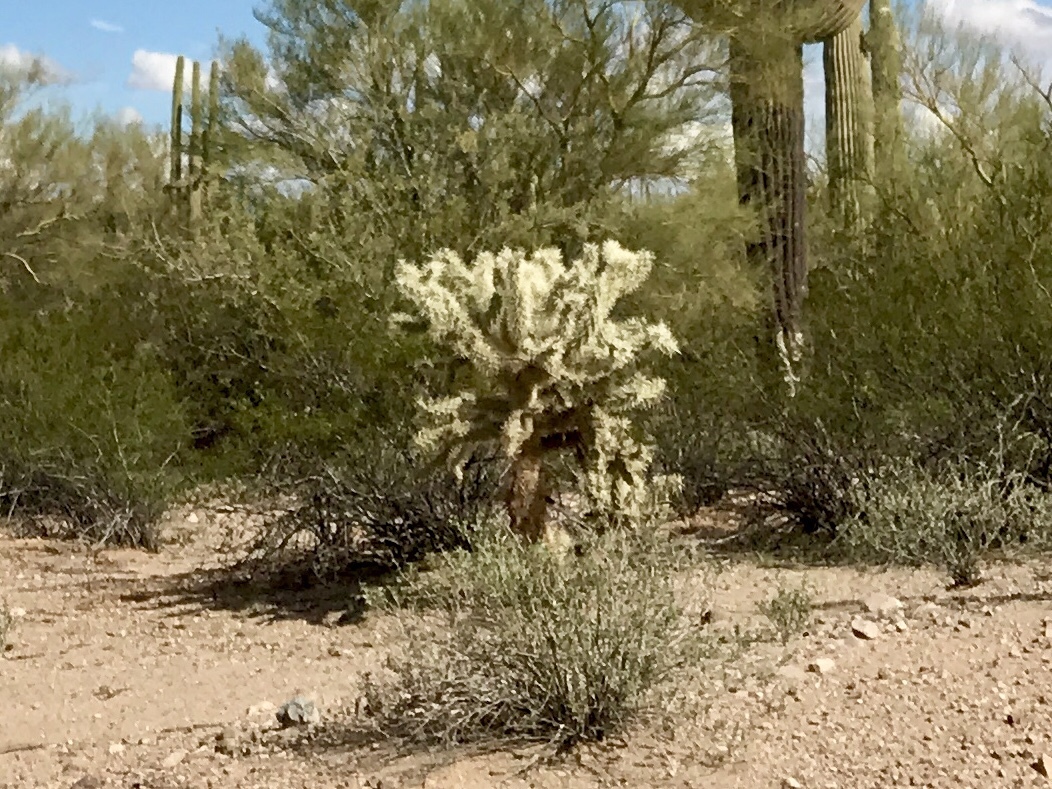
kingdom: Plantae
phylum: Tracheophyta
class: Magnoliopsida
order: Caryophyllales
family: Cactaceae
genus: Cylindropuntia
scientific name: Cylindropuntia fulgida
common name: Jumping cholla
